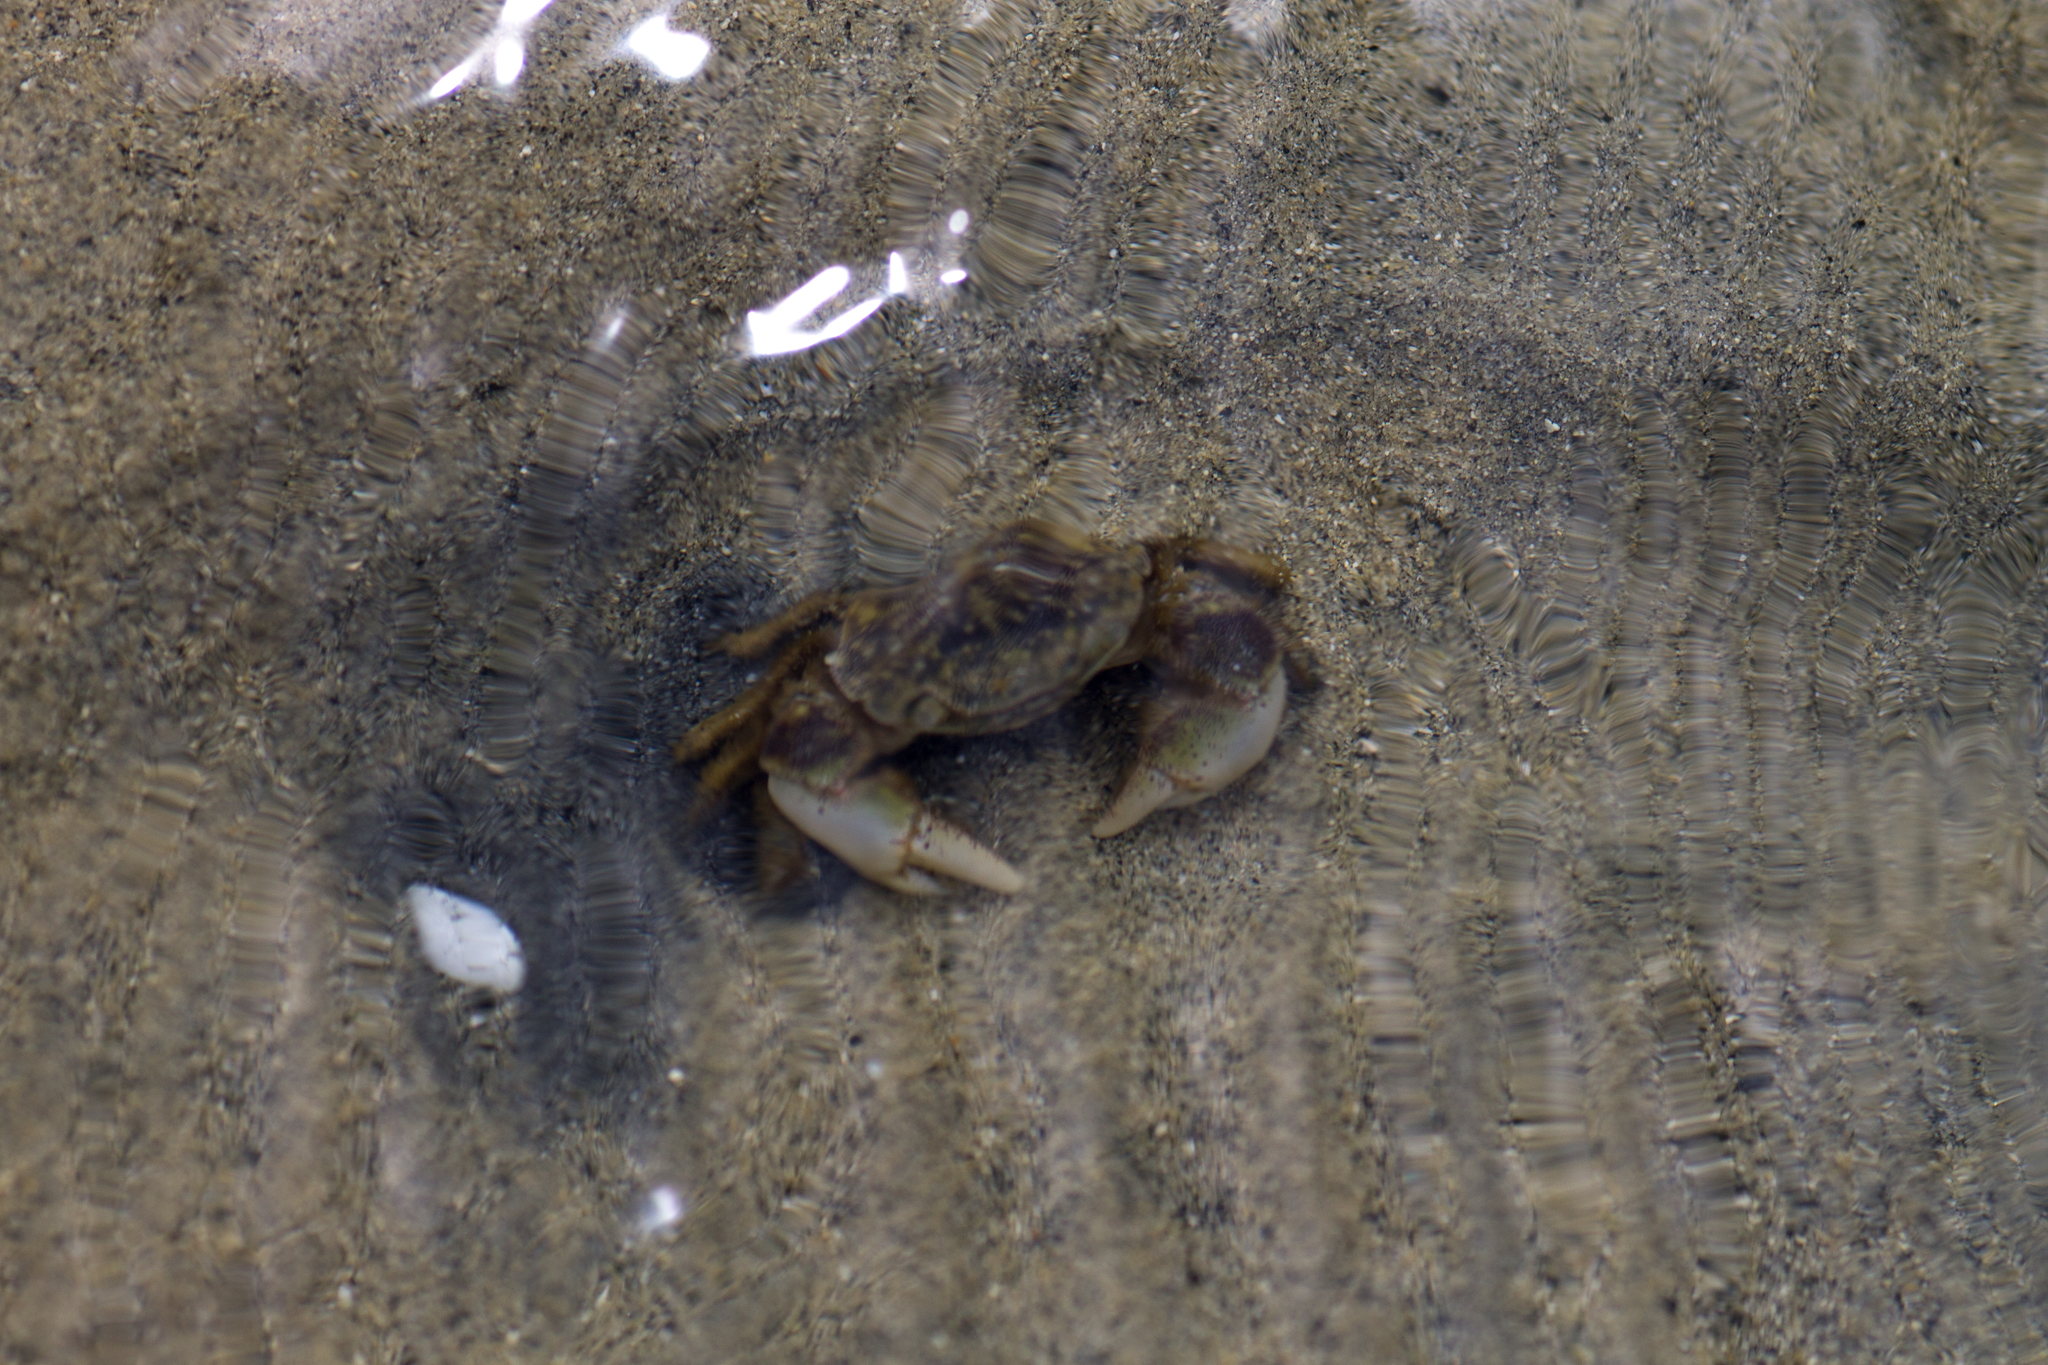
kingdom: Animalia
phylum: Arthropoda
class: Malacostraca
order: Decapoda
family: Varunidae
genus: Hemigrapsus
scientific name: Hemigrapsus crenulatus
